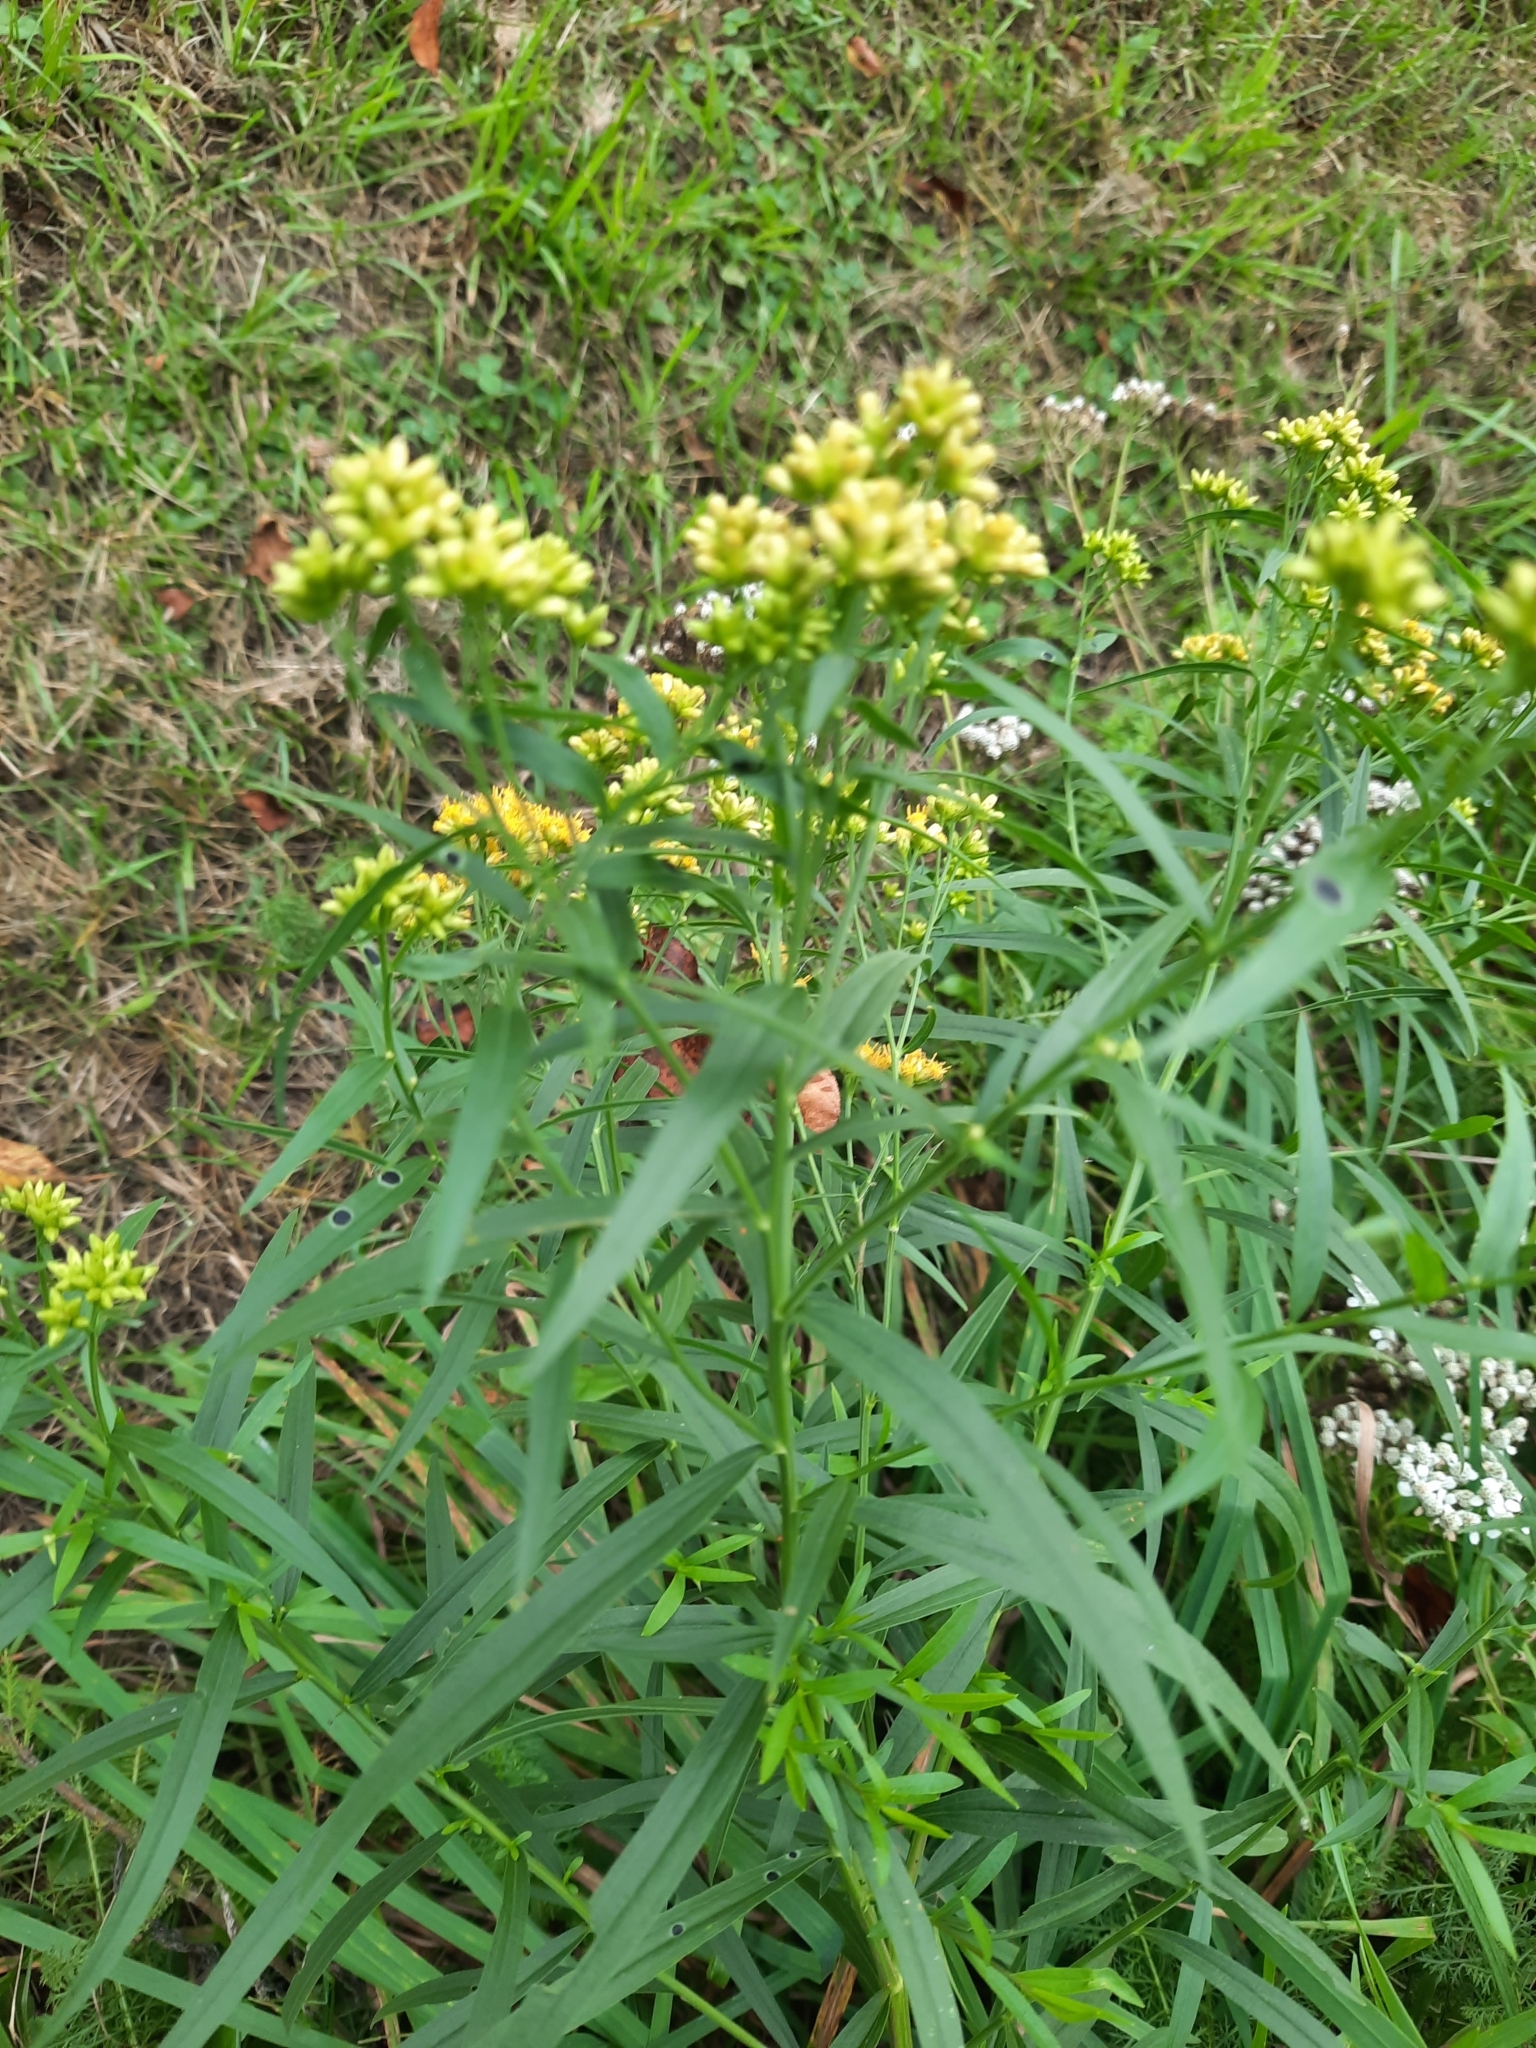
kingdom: Plantae
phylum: Tracheophyta
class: Magnoliopsida
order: Asterales
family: Asteraceae
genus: Euthamia
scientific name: Euthamia graminifolia
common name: Common goldentop
